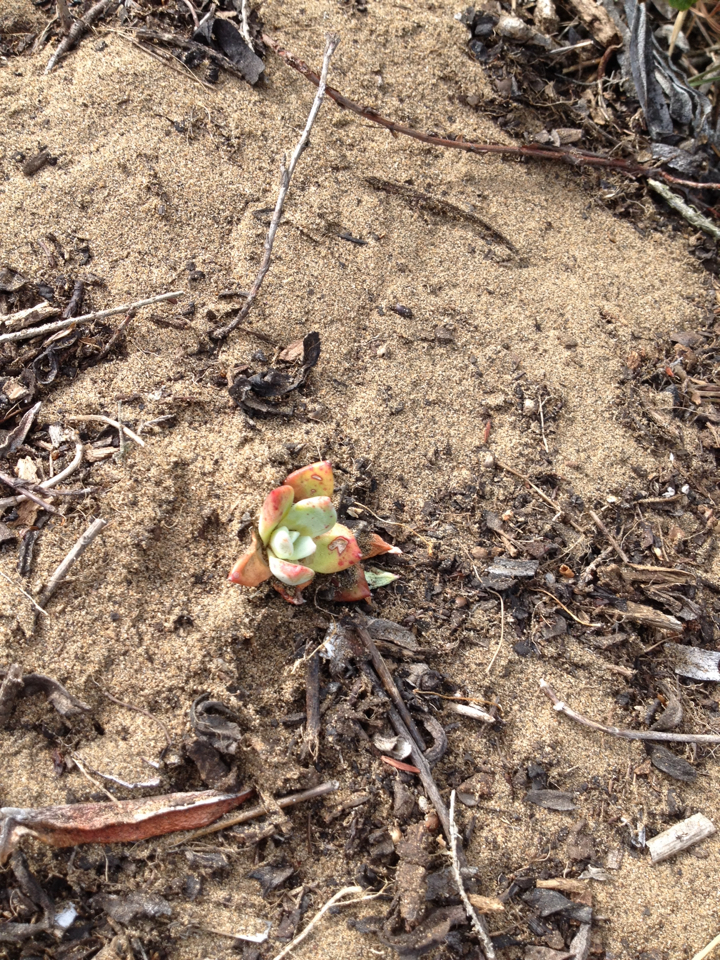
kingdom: Plantae
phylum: Tracheophyta
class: Magnoliopsida
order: Saxifragales
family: Crassulaceae
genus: Dudleya
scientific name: Dudleya farinosa
